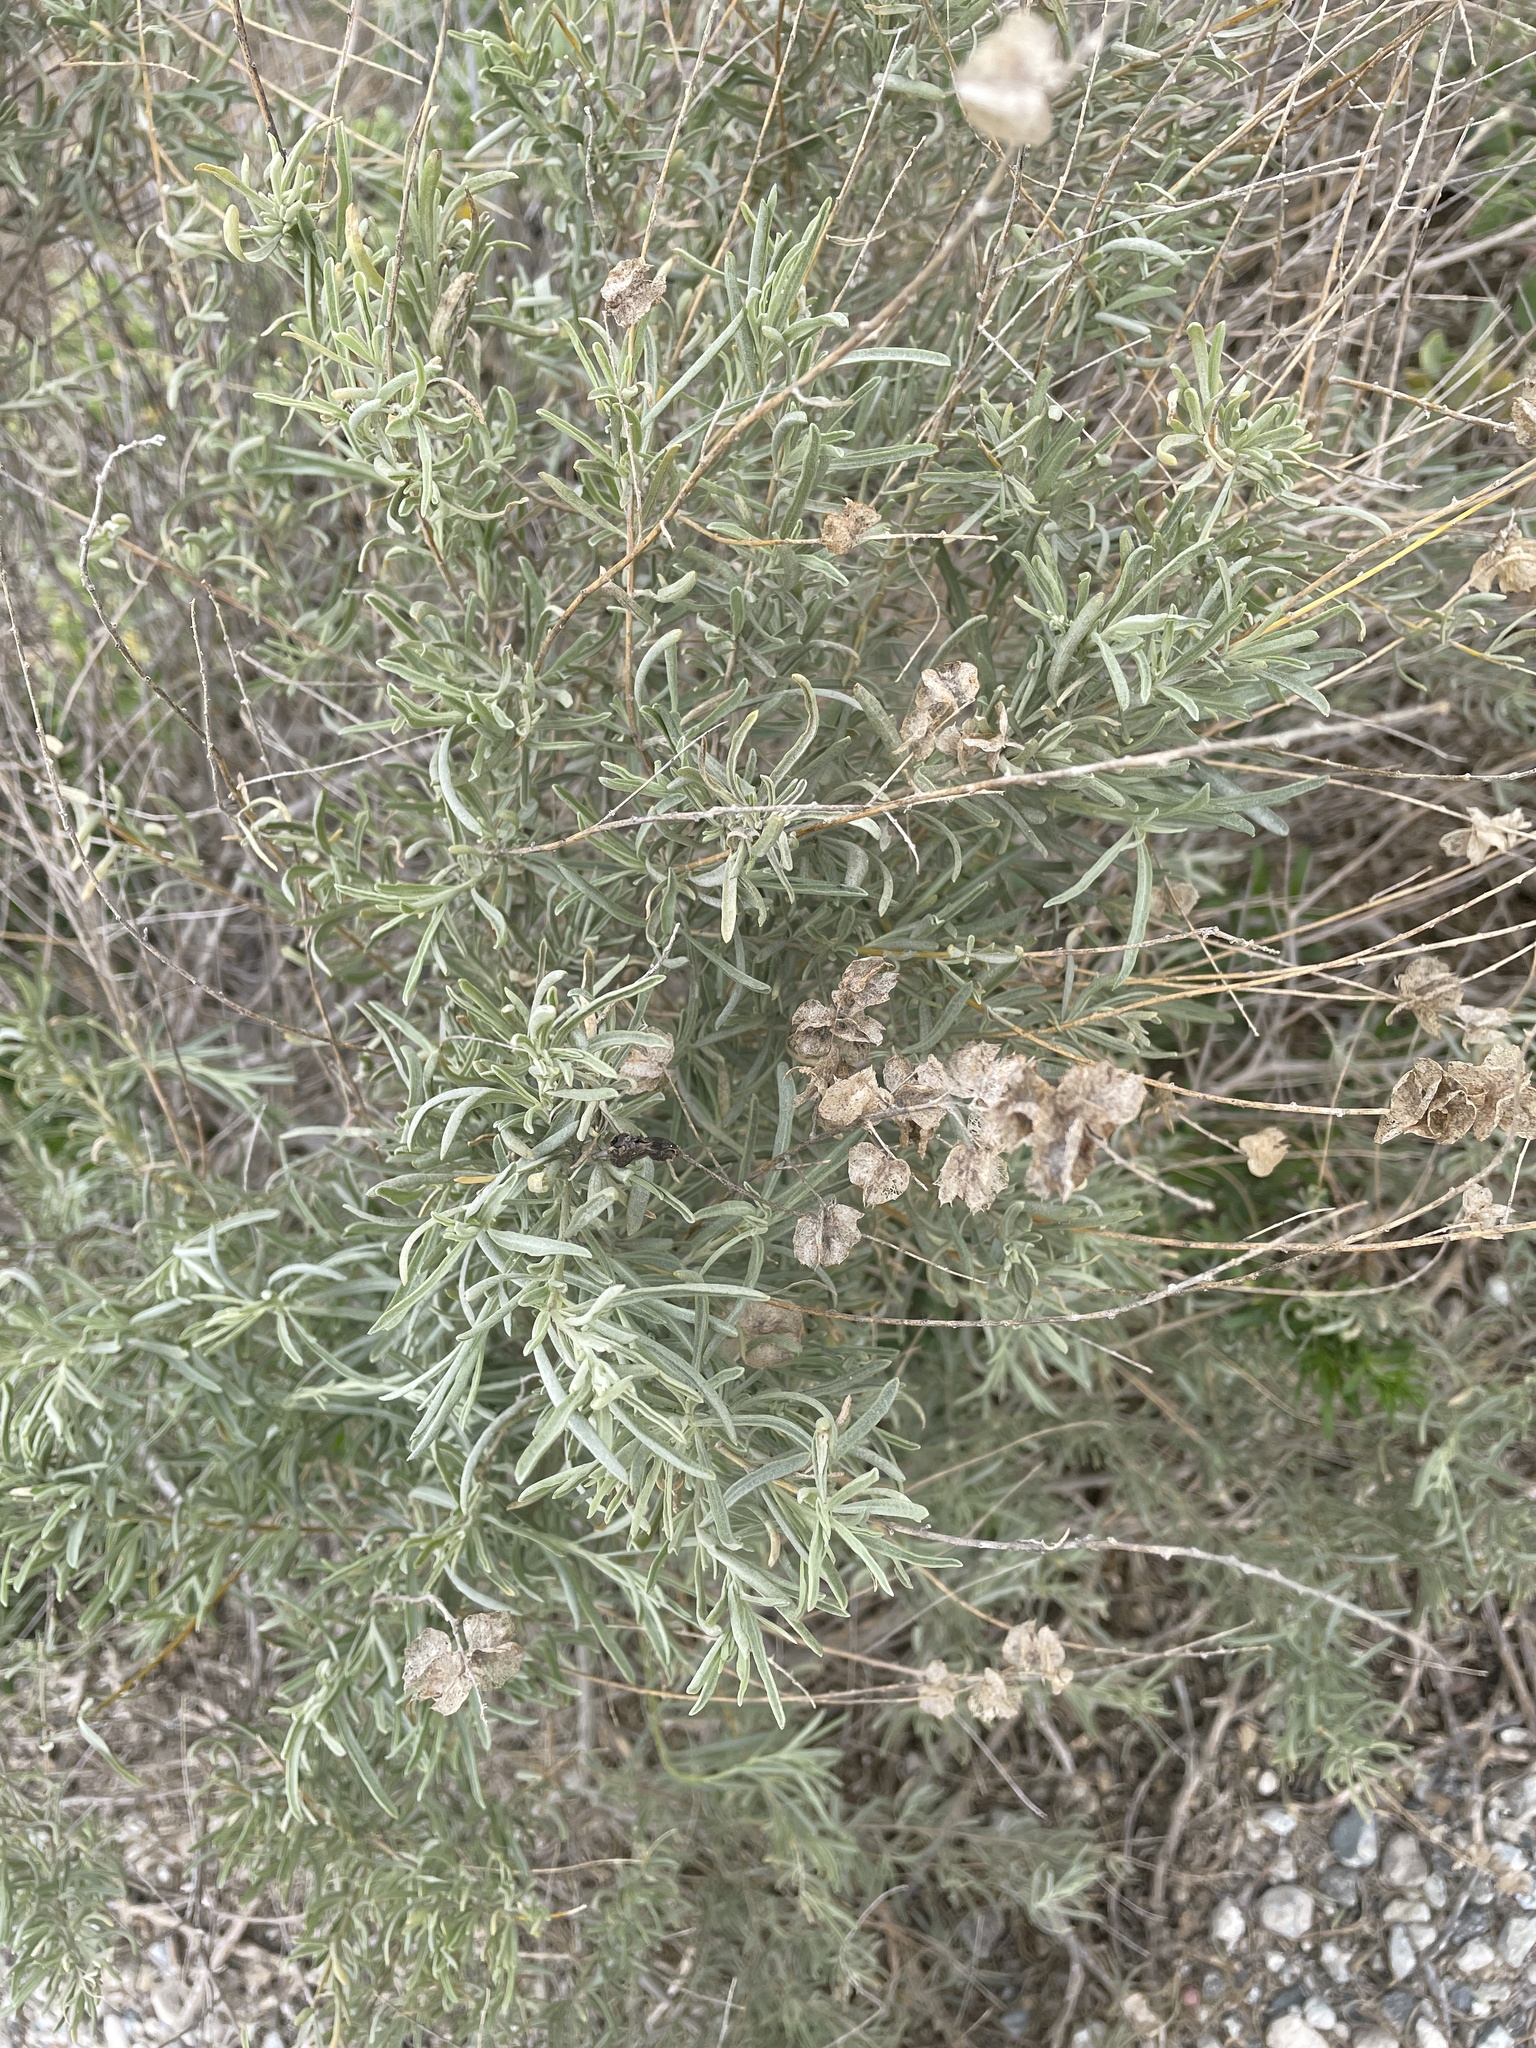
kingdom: Plantae
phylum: Tracheophyta
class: Magnoliopsida
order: Caryophyllales
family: Amaranthaceae
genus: Atriplex
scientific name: Atriplex canescens
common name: Four-wing saltbush
